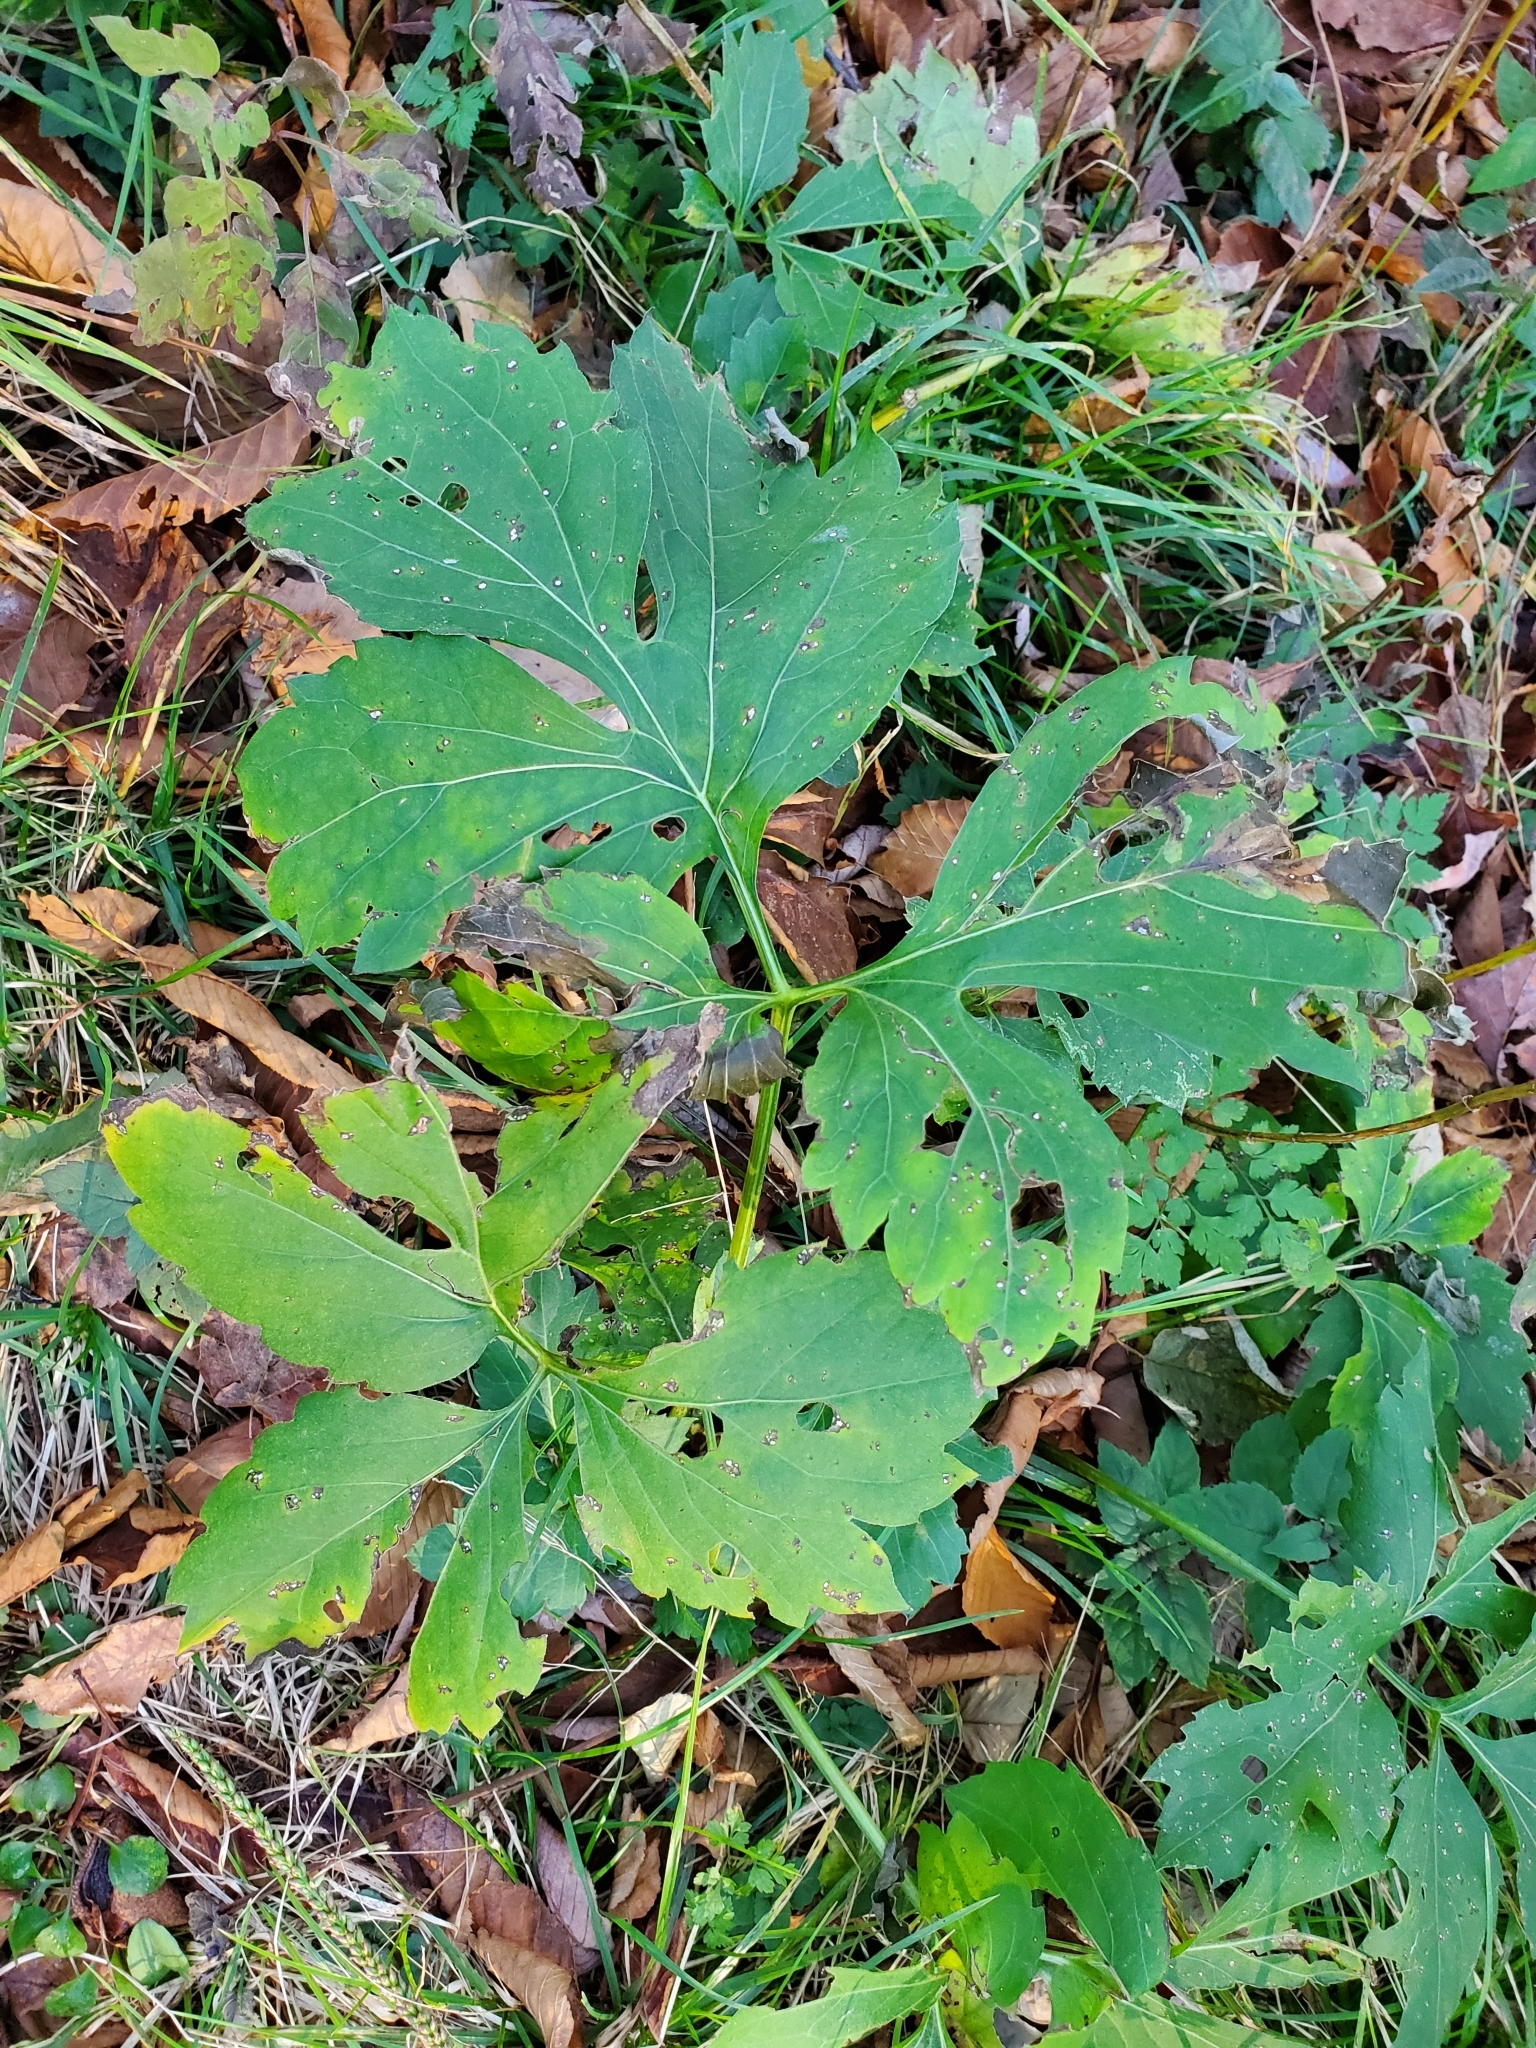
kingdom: Plantae
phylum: Tracheophyta
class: Magnoliopsida
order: Asterales
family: Asteraceae
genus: Rudbeckia
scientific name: Rudbeckia laciniata
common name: Coneflower
